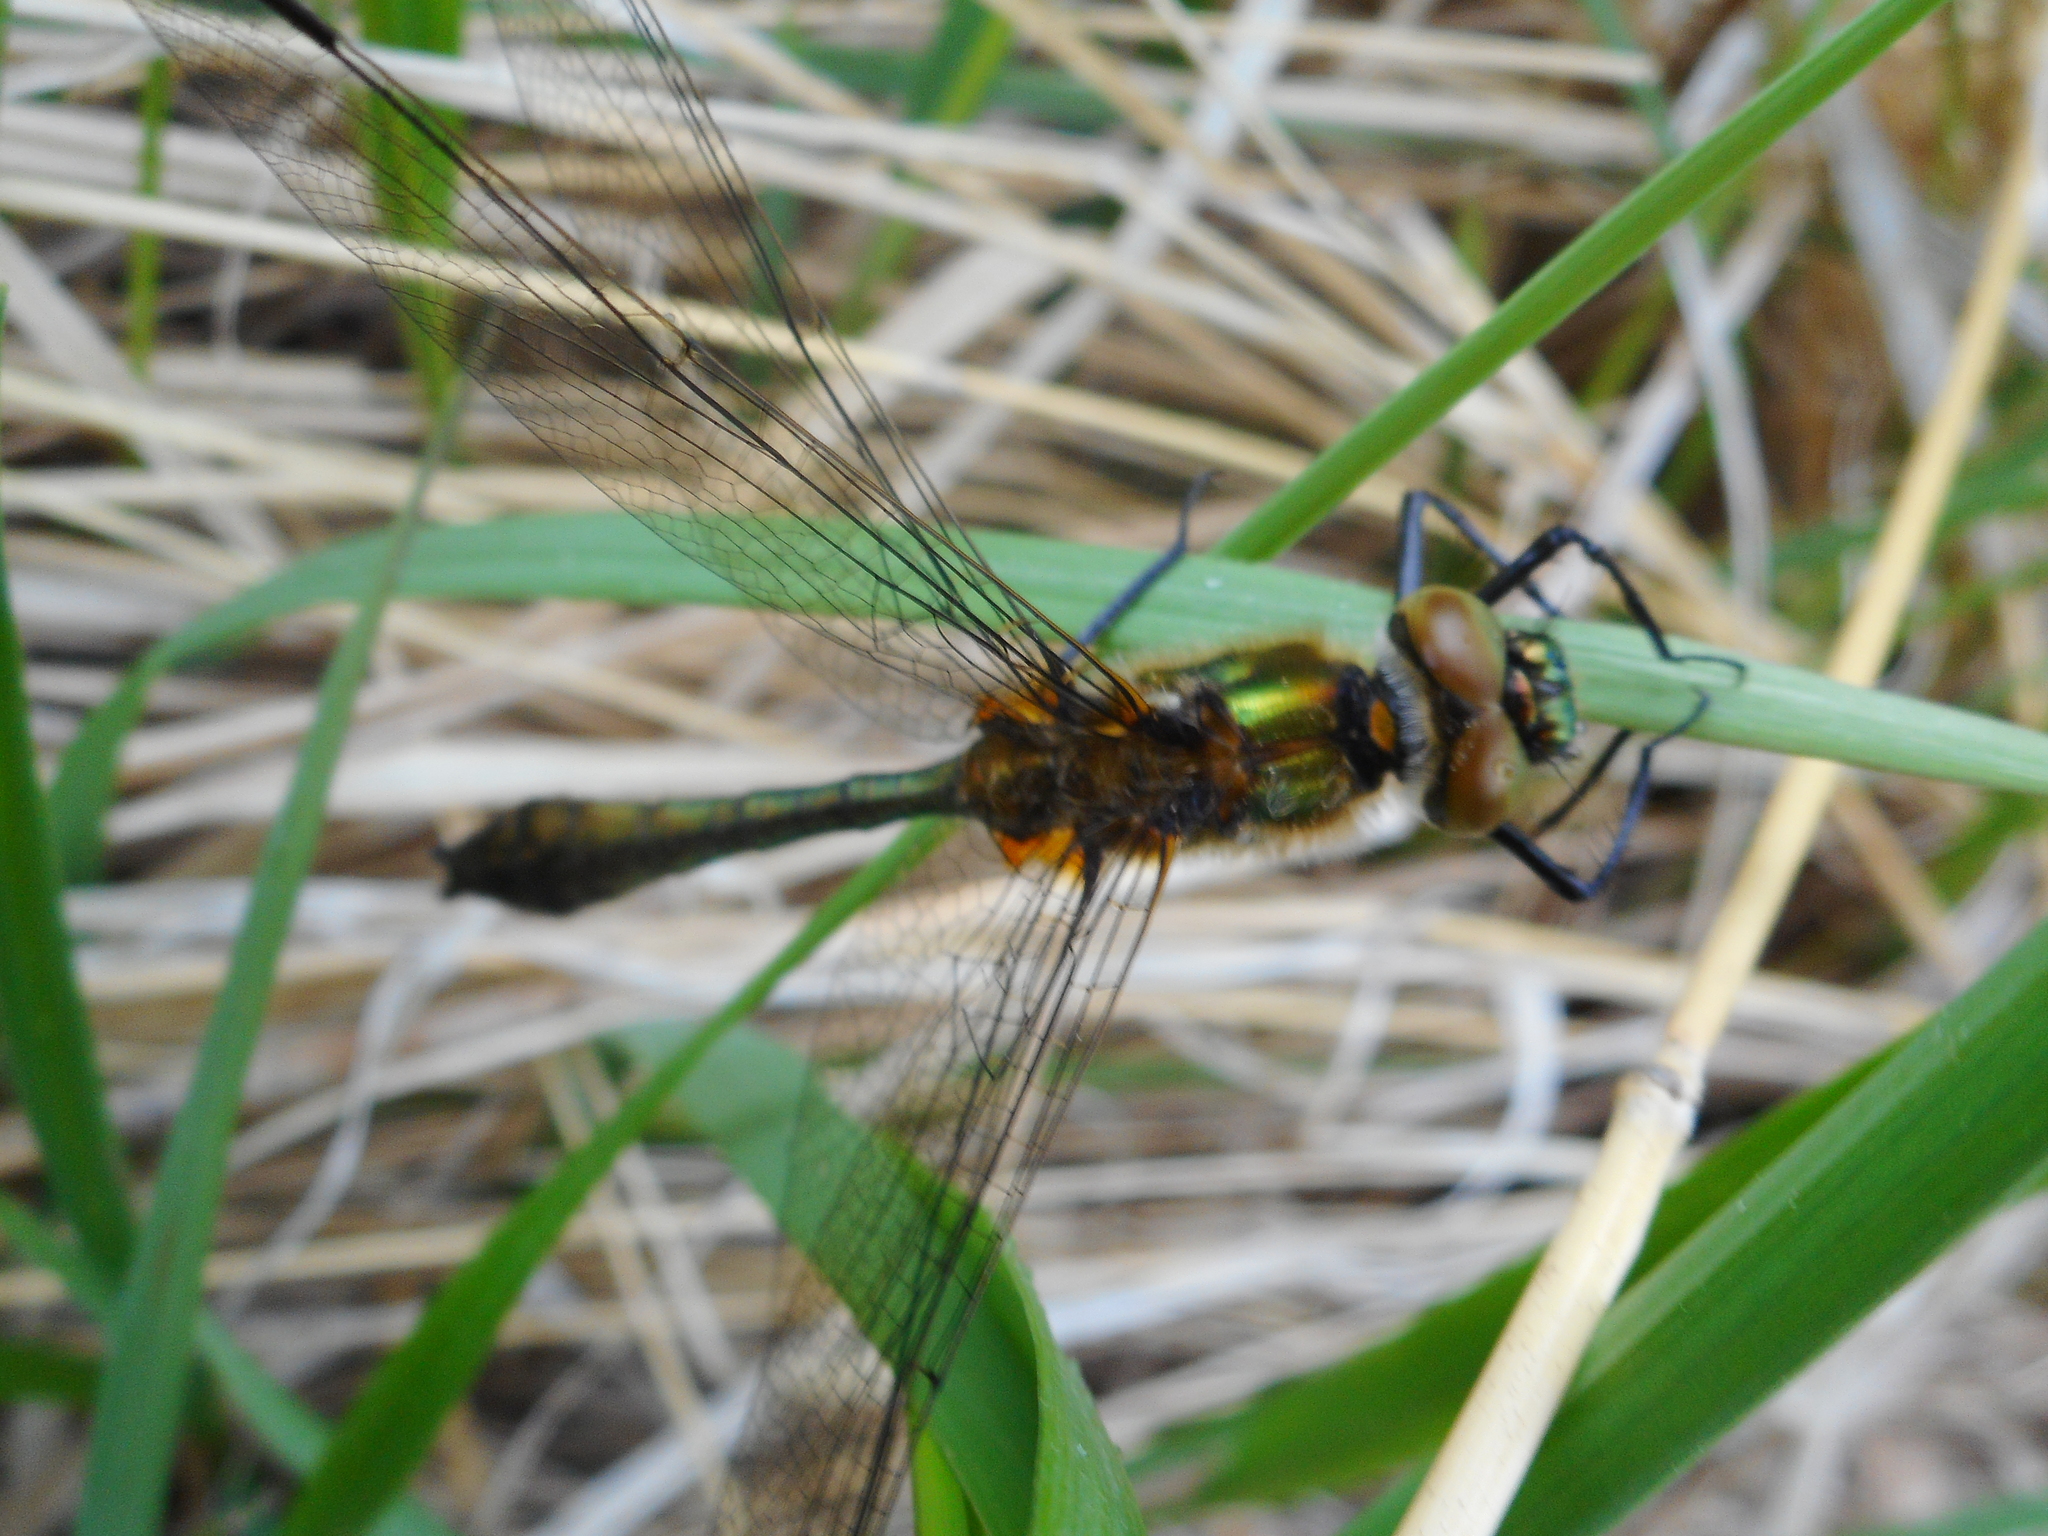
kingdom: Animalia
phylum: Arthropoda
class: Insecta
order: Odonata
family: Corduliidae
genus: Cordulia
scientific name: Cordulia aenea
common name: Downy emerald
